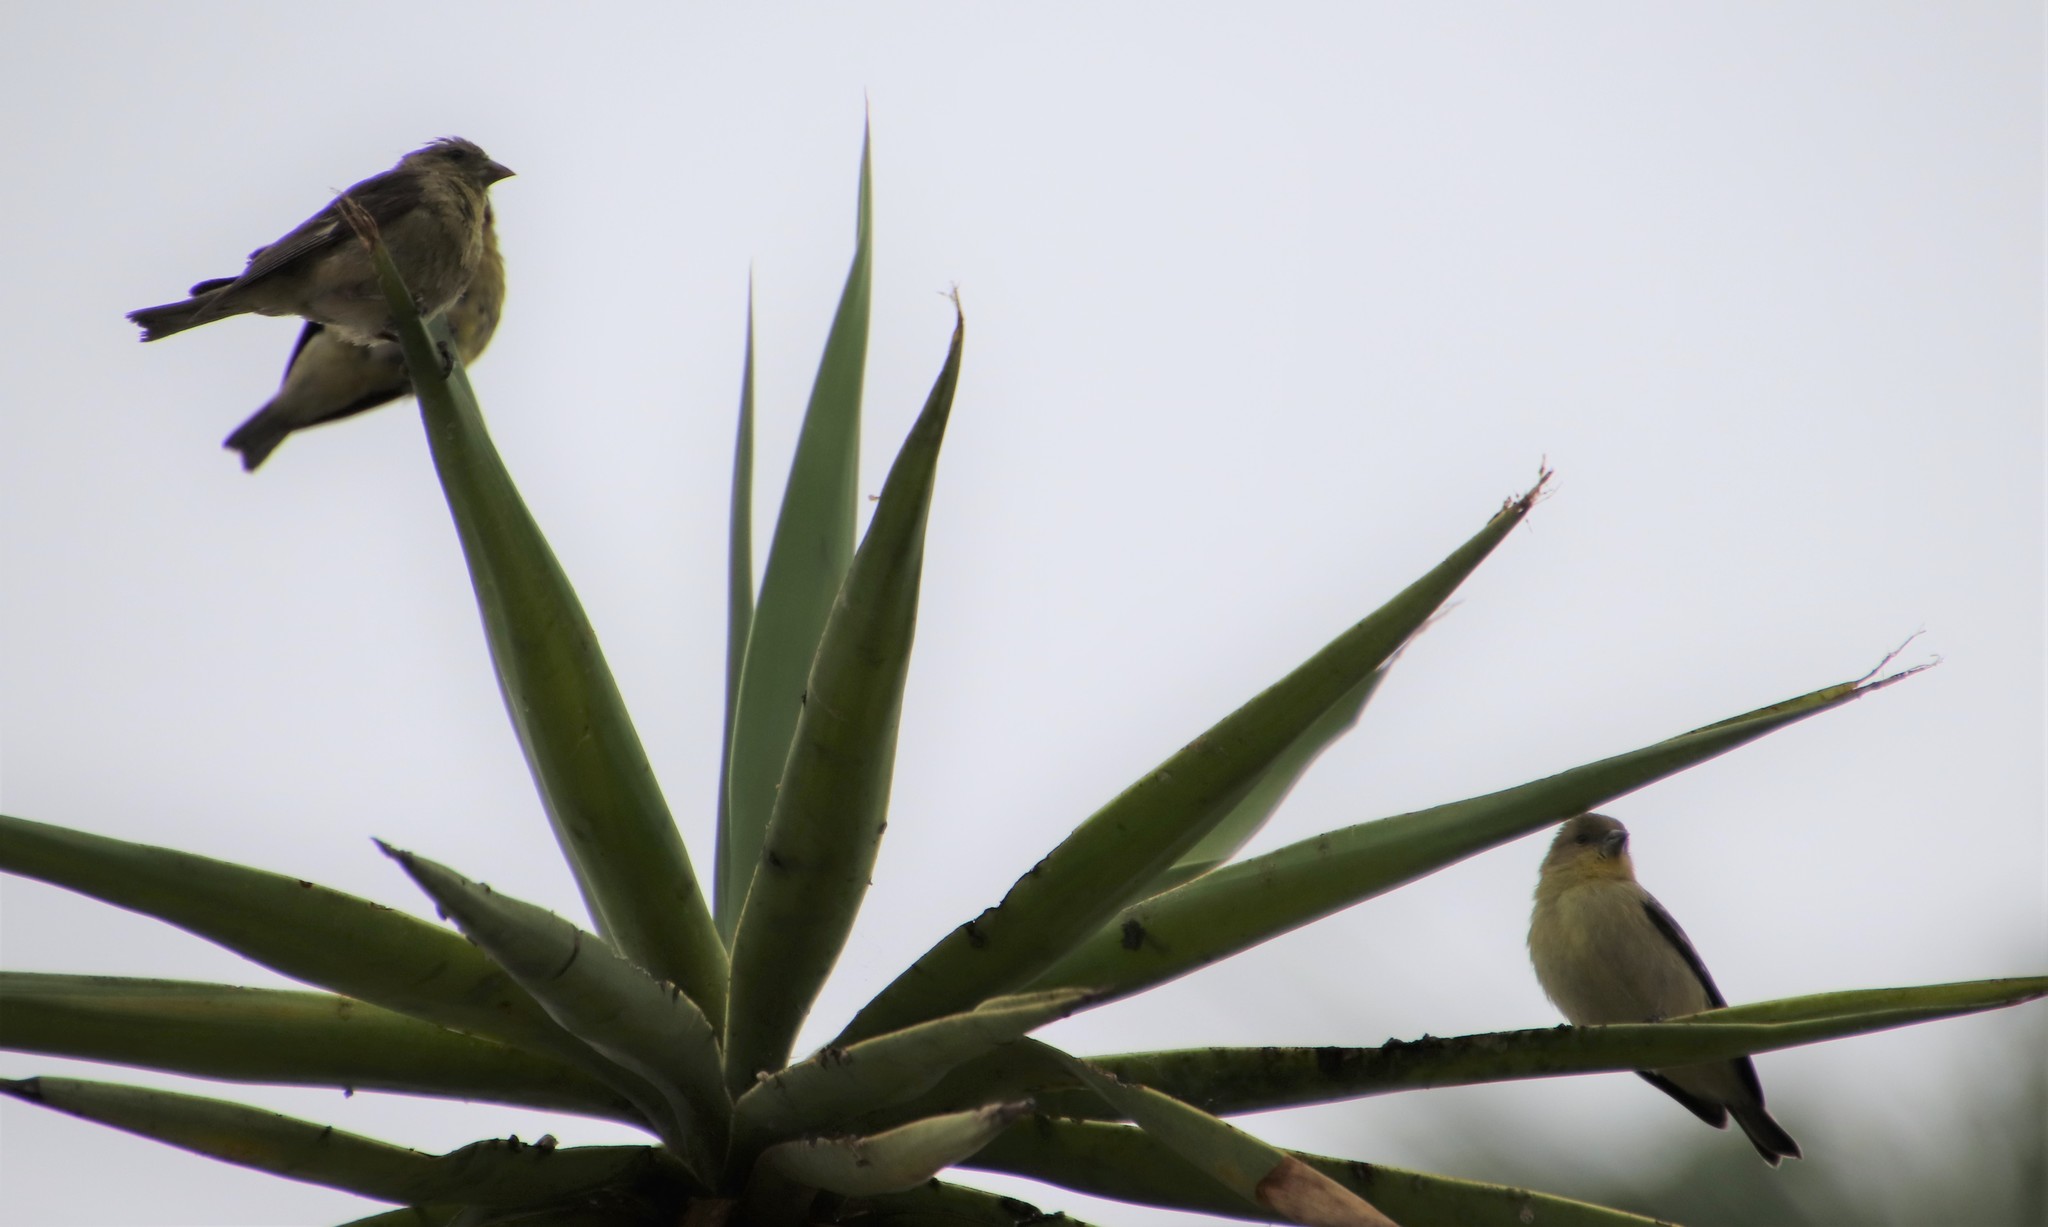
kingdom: Animalia
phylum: Chordata
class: Aves
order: Passeriformes
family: Fringillidae
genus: Spinus
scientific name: Spinus psaltria
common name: Lesser goldfinch
